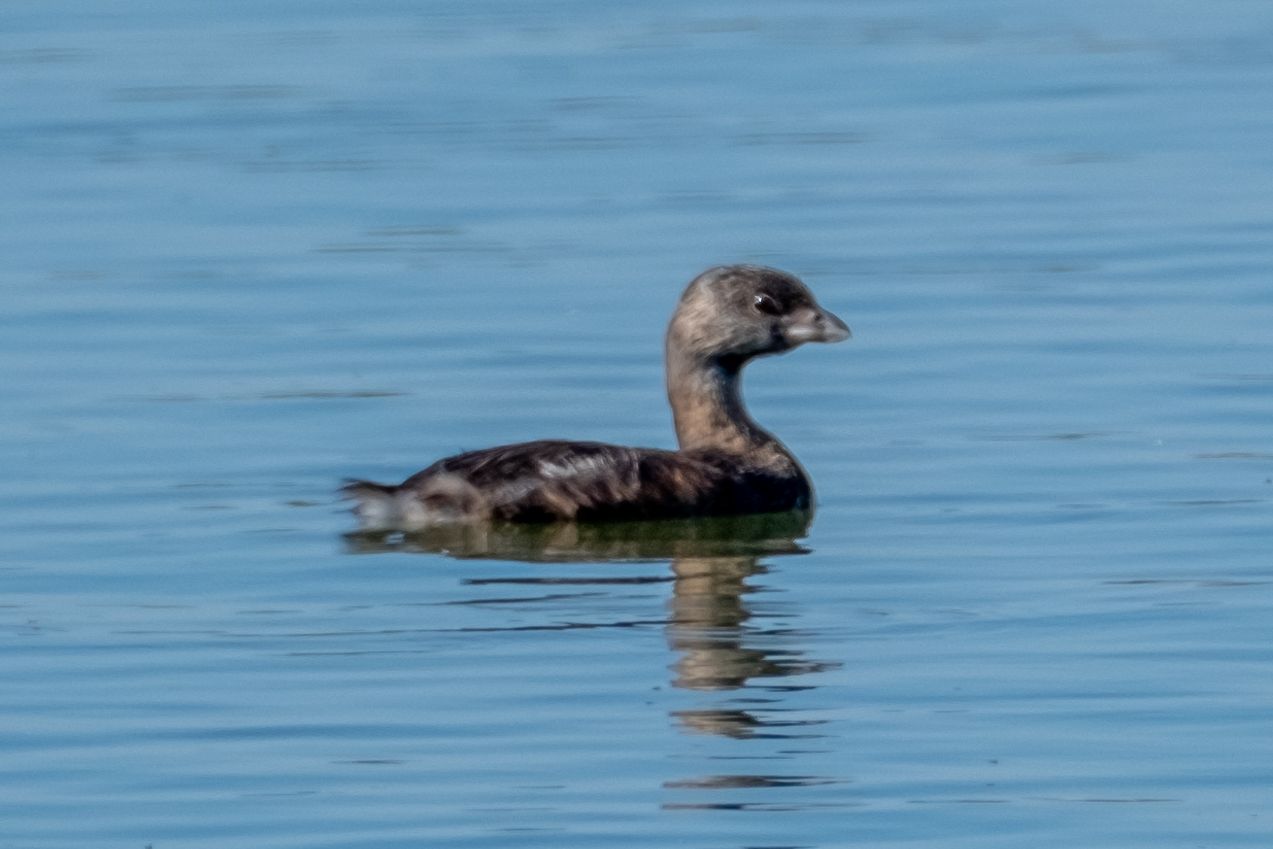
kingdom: Animalia
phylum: Chordata
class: Aves
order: Podicipediformes
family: Podicipedidae
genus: Podilymbus
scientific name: Podilymbus podiceps
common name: Pied-billed grebe
